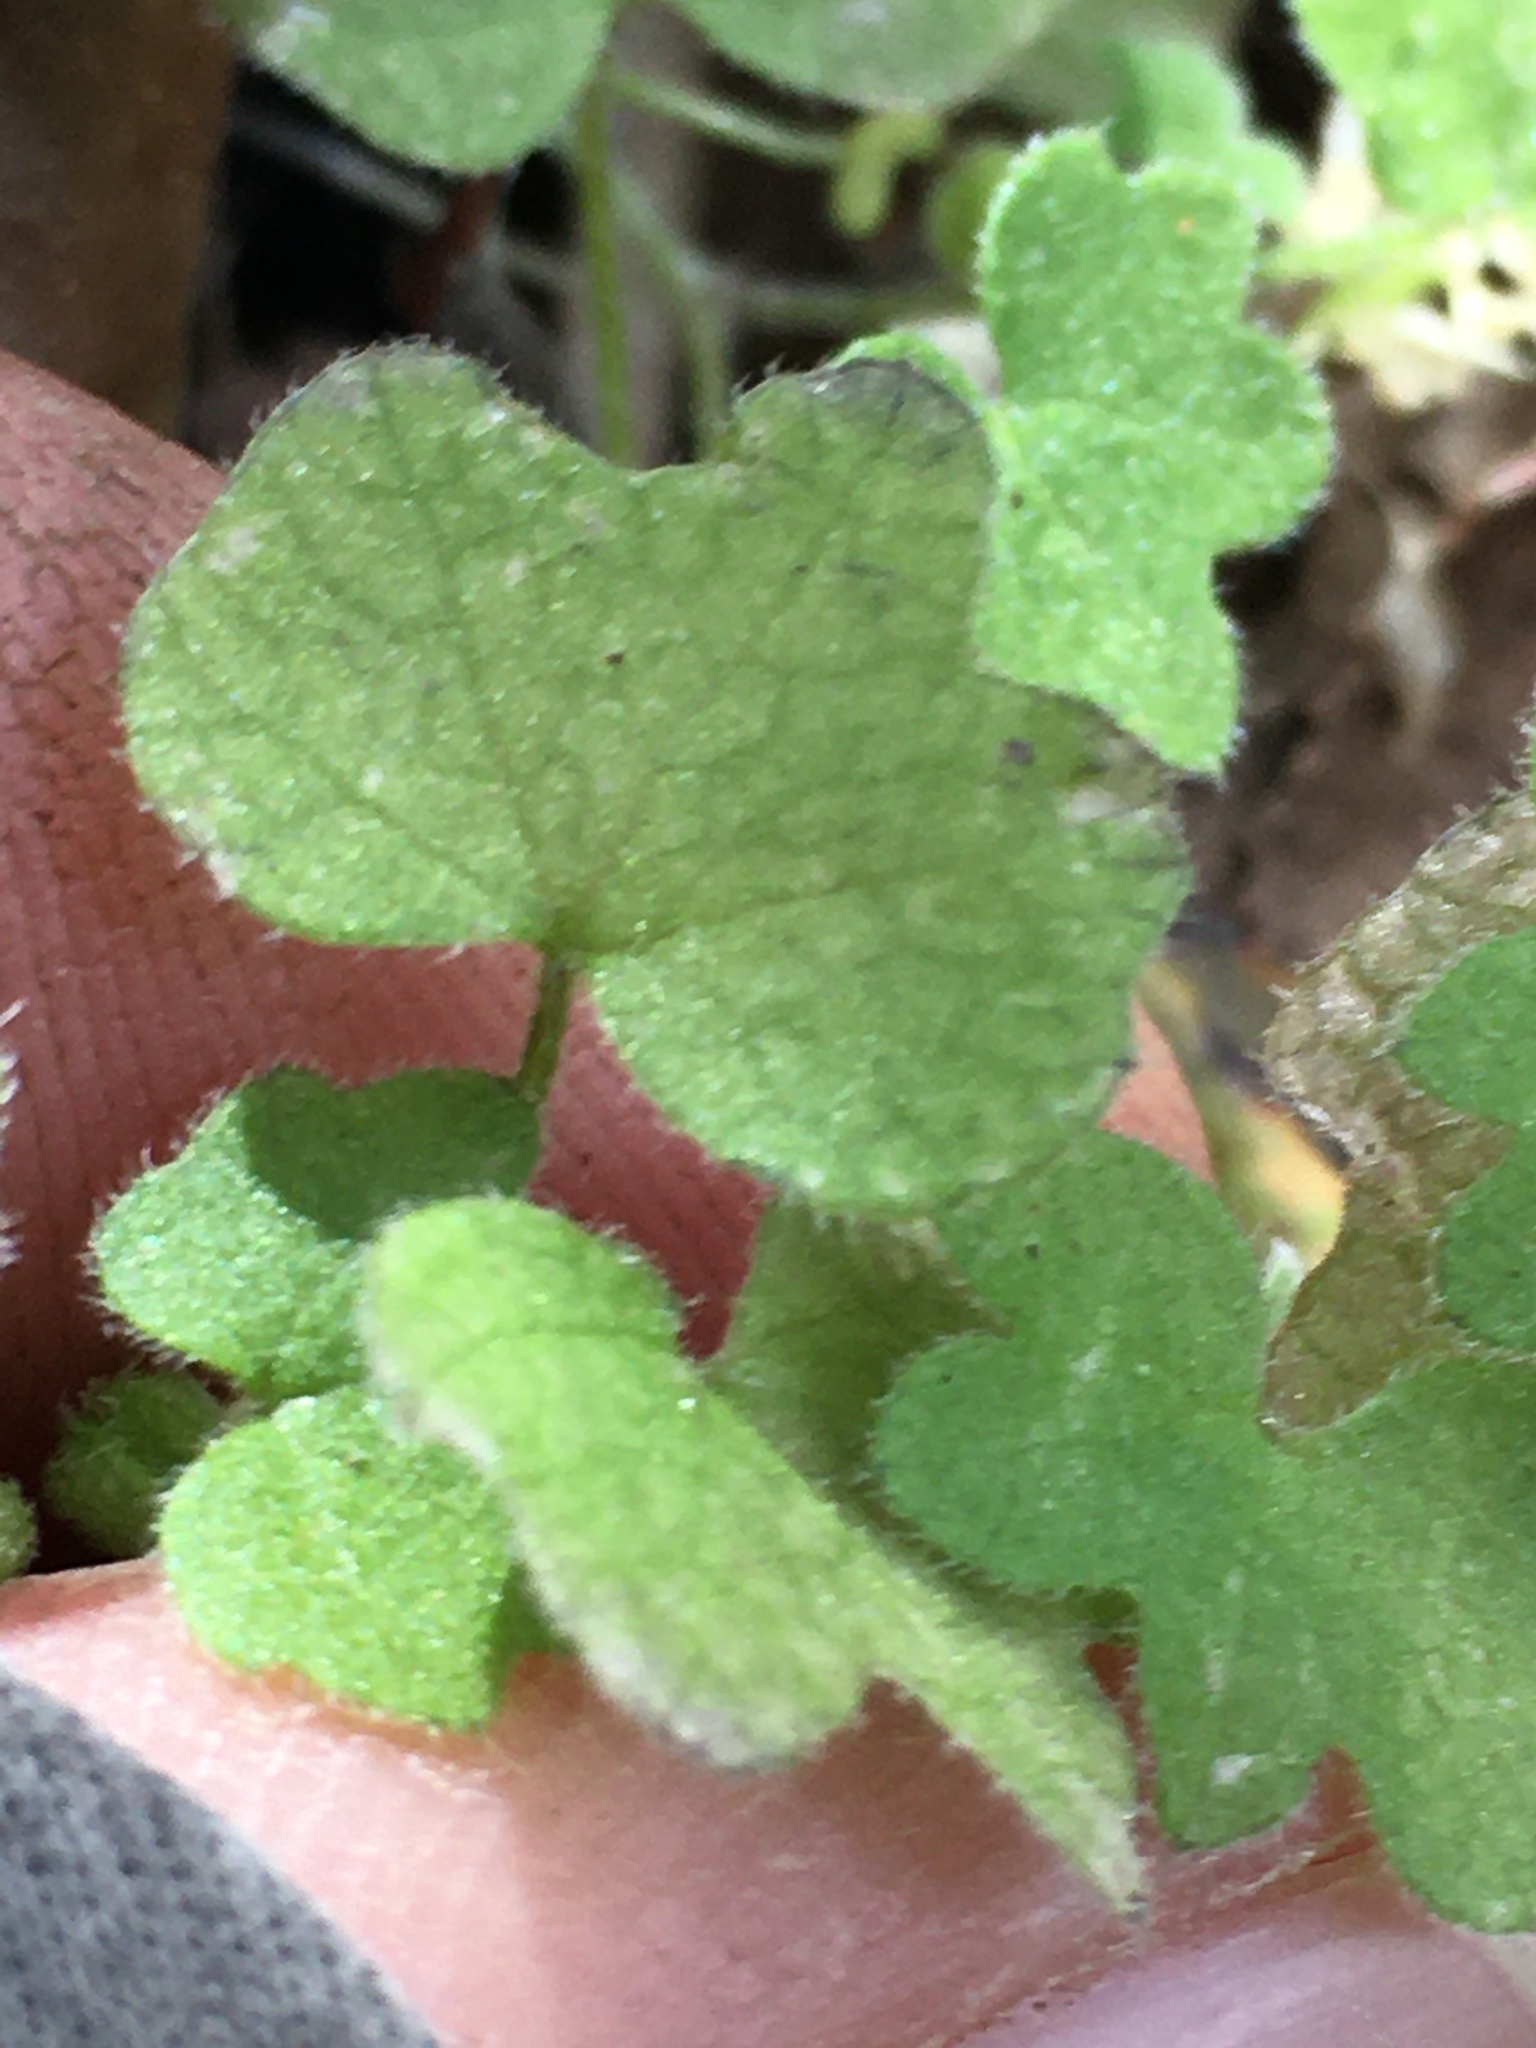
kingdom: Plantae
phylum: Tracheophyta
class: Magnoliopsida
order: Apiales
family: Apiaceae
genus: Bowlesia
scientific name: Bowlesia incana
